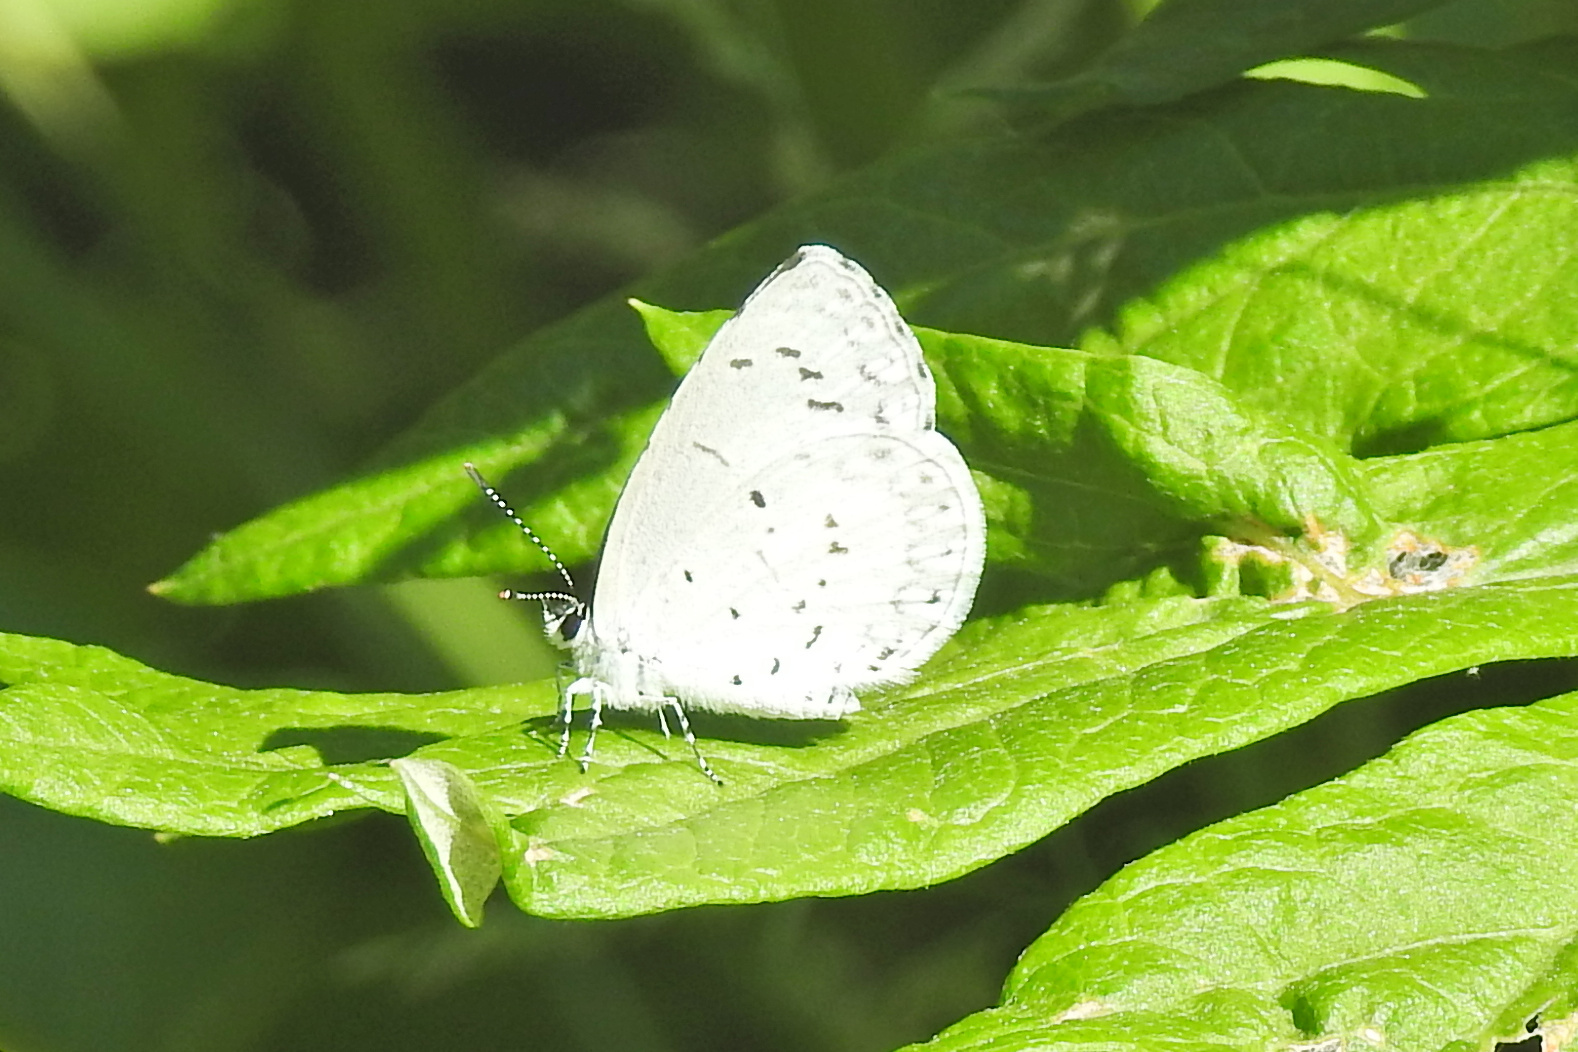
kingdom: Animalia
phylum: Arthropoda
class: Insecta
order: Lepidoptera
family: Lycaenidae
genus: Cyaniris
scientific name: Cyaniris neglecta
